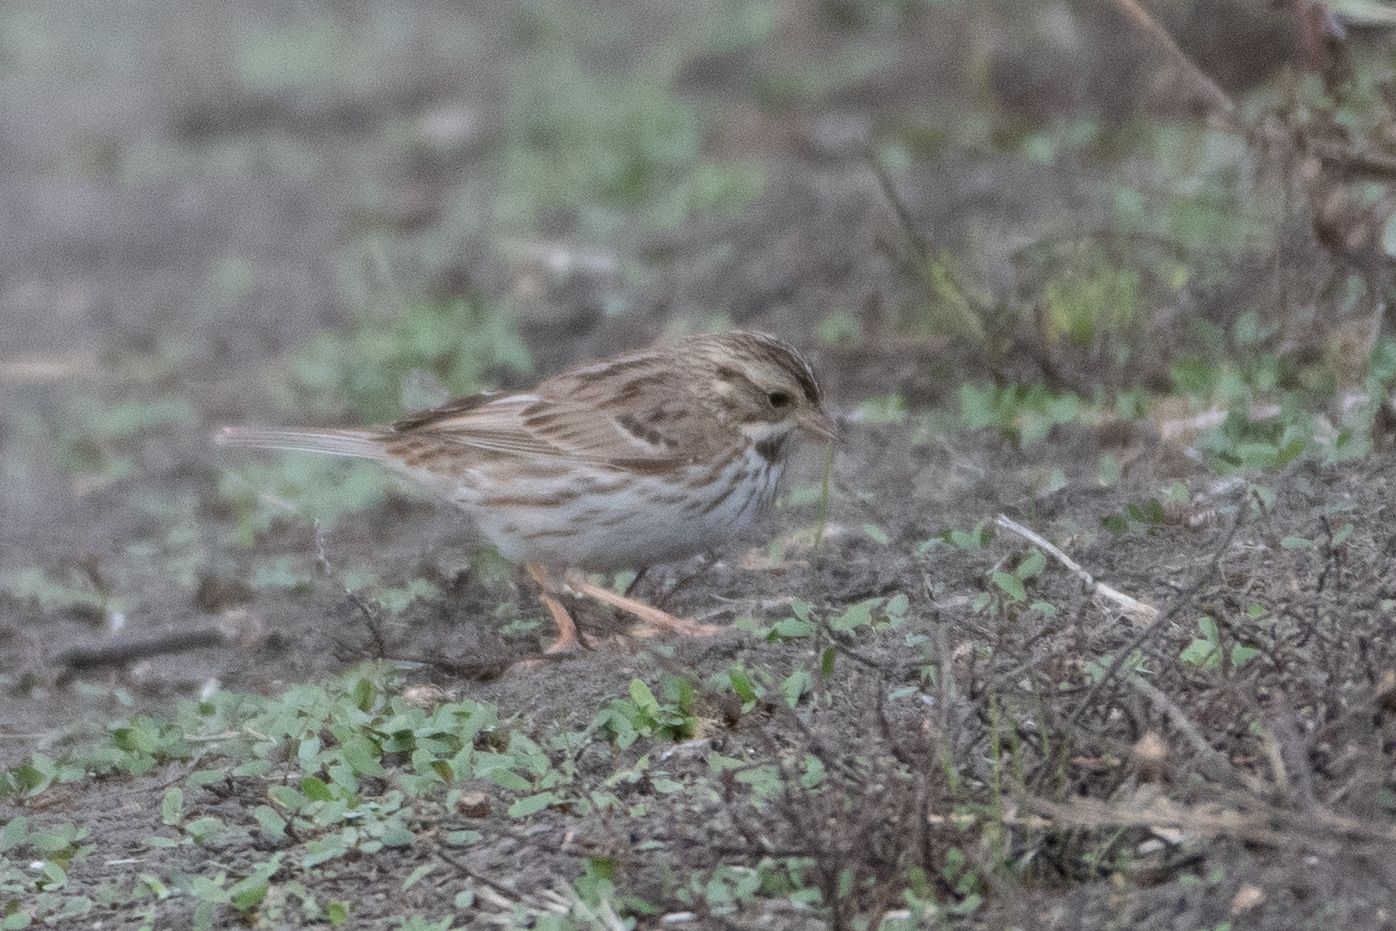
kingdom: Animalia
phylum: Chordata
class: Aves
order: Passeriformes
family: Passerellidae
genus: Passerculus
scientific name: Passerculus sandwichensis
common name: Savannah sparrow
